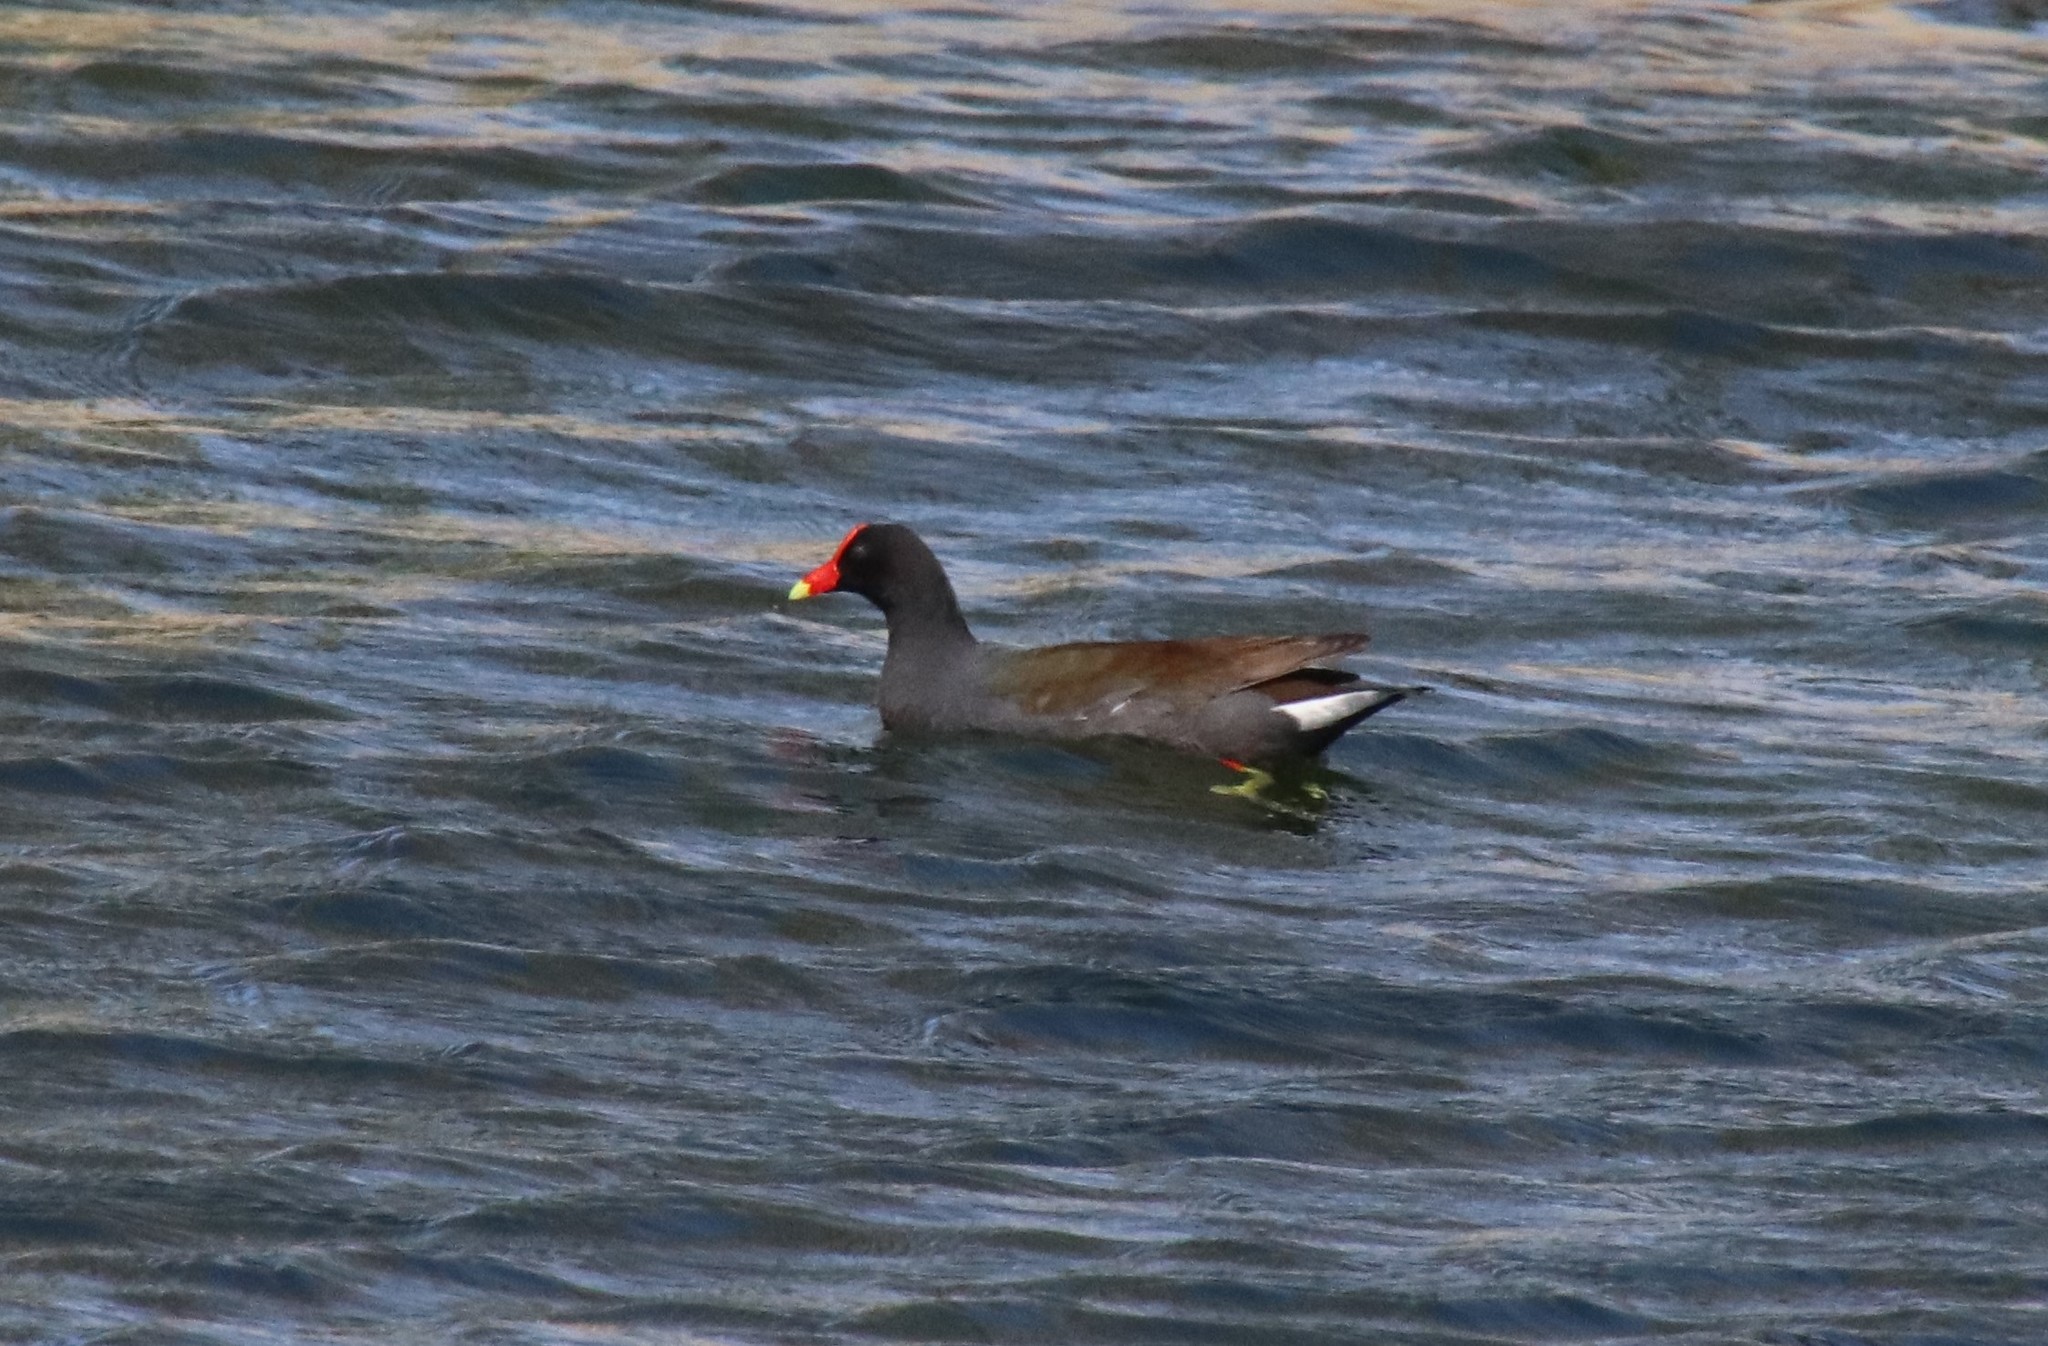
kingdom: Animalia
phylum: Chordata
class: Aves
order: Gruiformes
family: Rallidae
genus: Gallinula
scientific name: Gallinula chloropus
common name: Common moorhen
